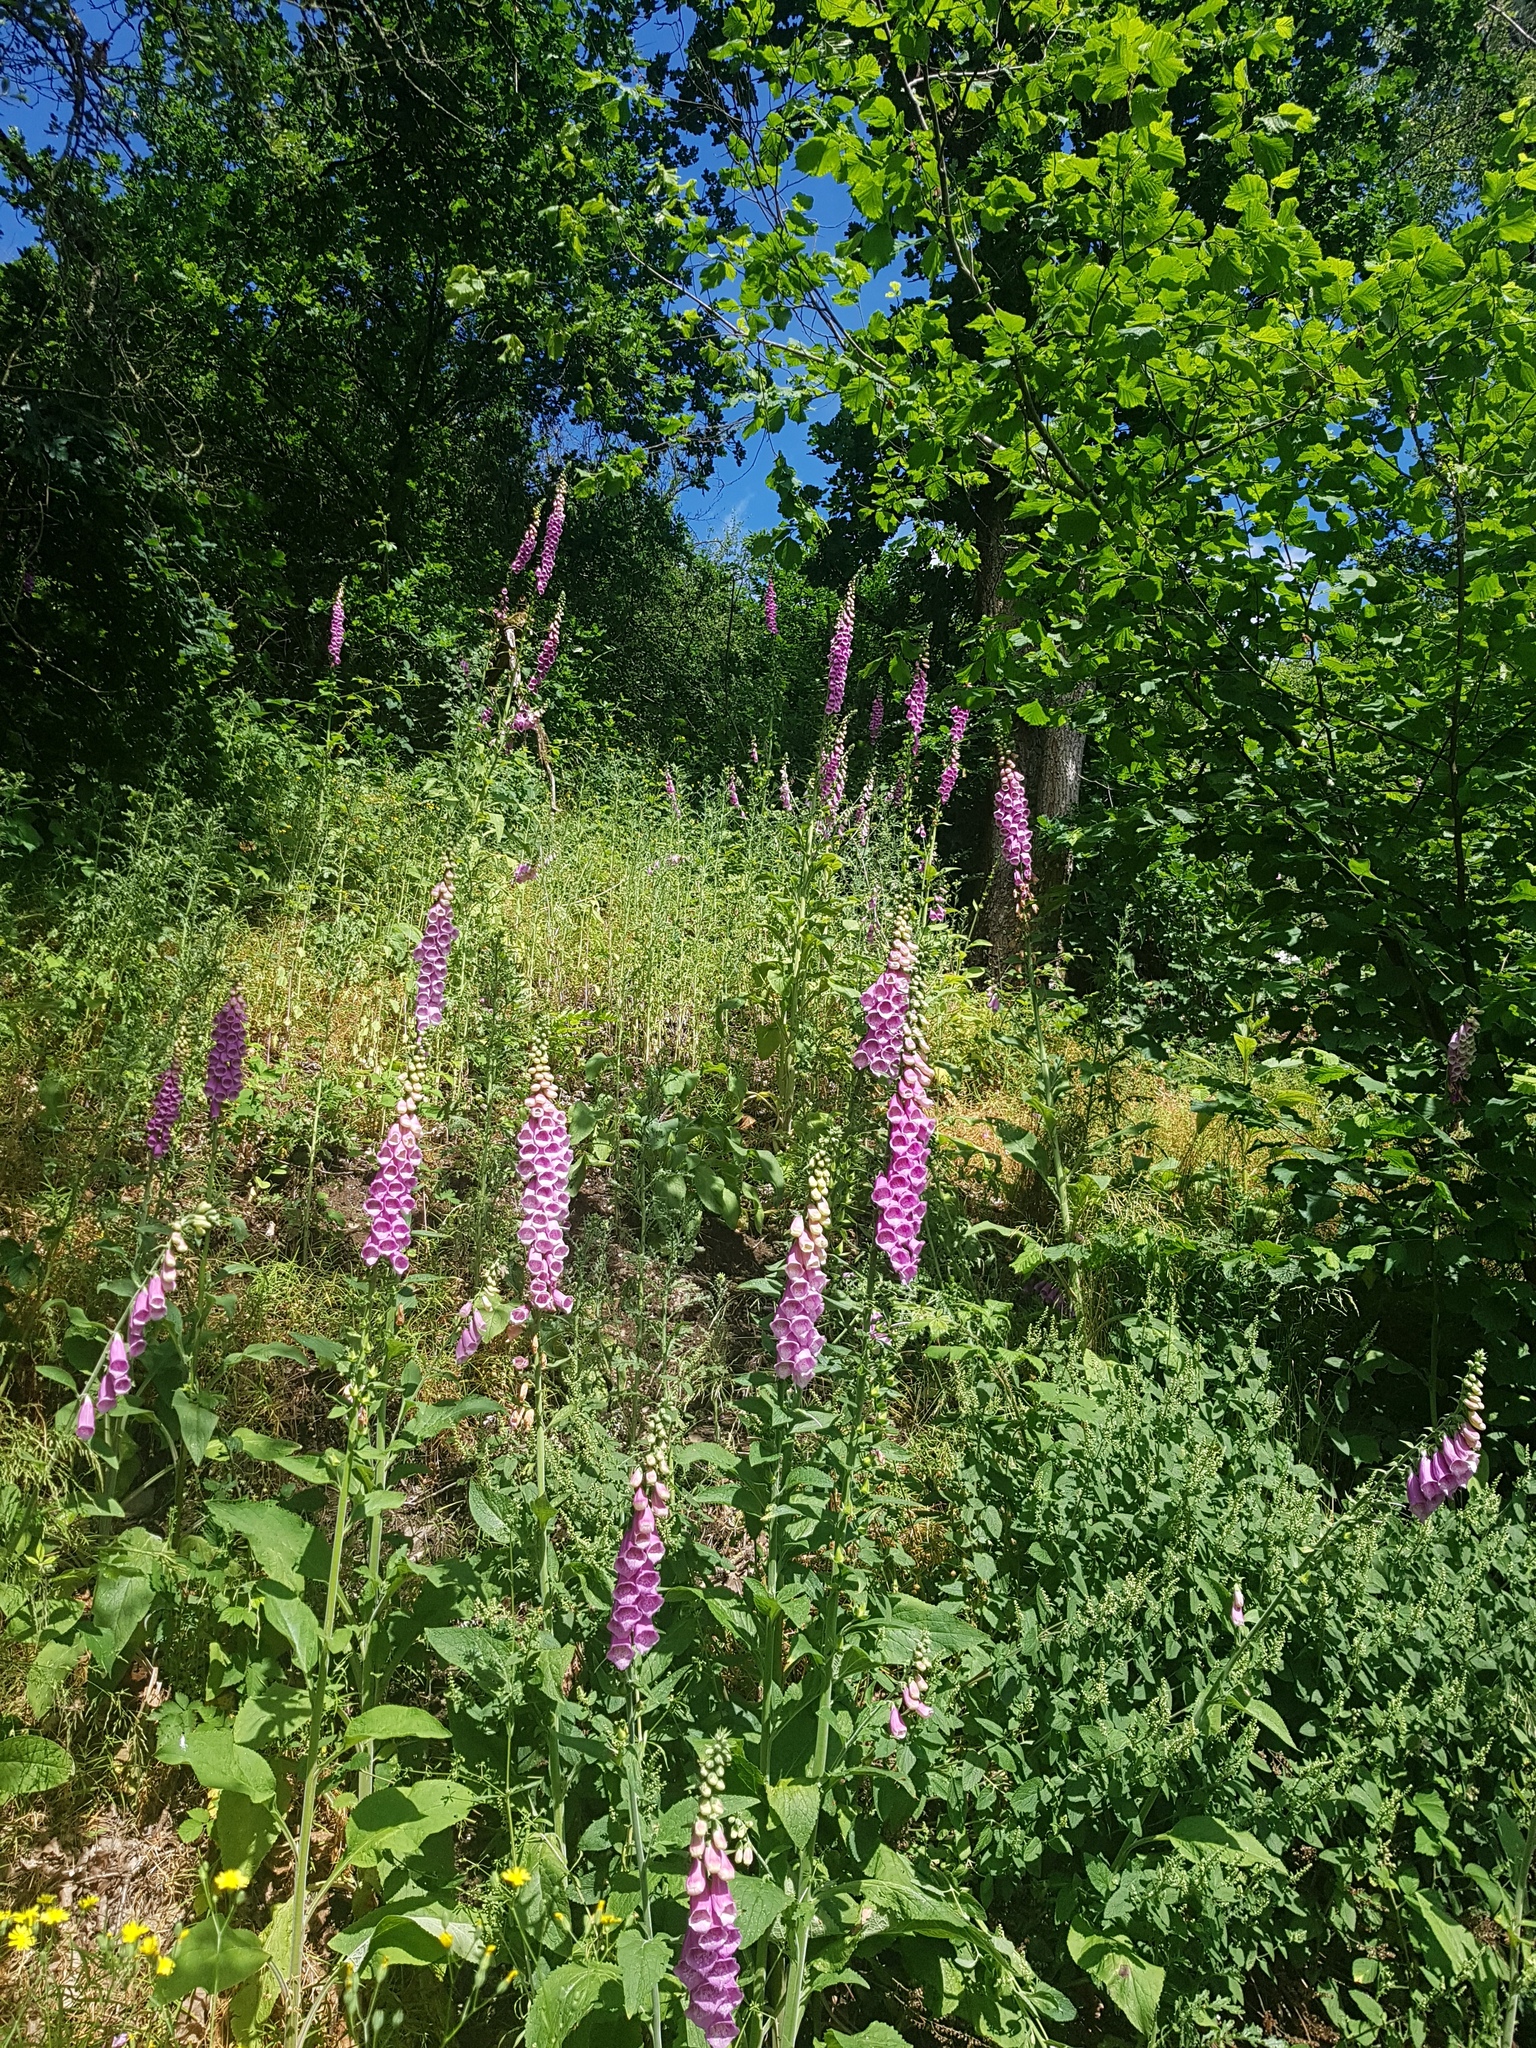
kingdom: Plantae
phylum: Tracheophyta
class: Magnoliopsida
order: Lamiales
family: Plantaginaceae
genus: Digitalis
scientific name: Digitalis purpurea
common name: Foxglove
